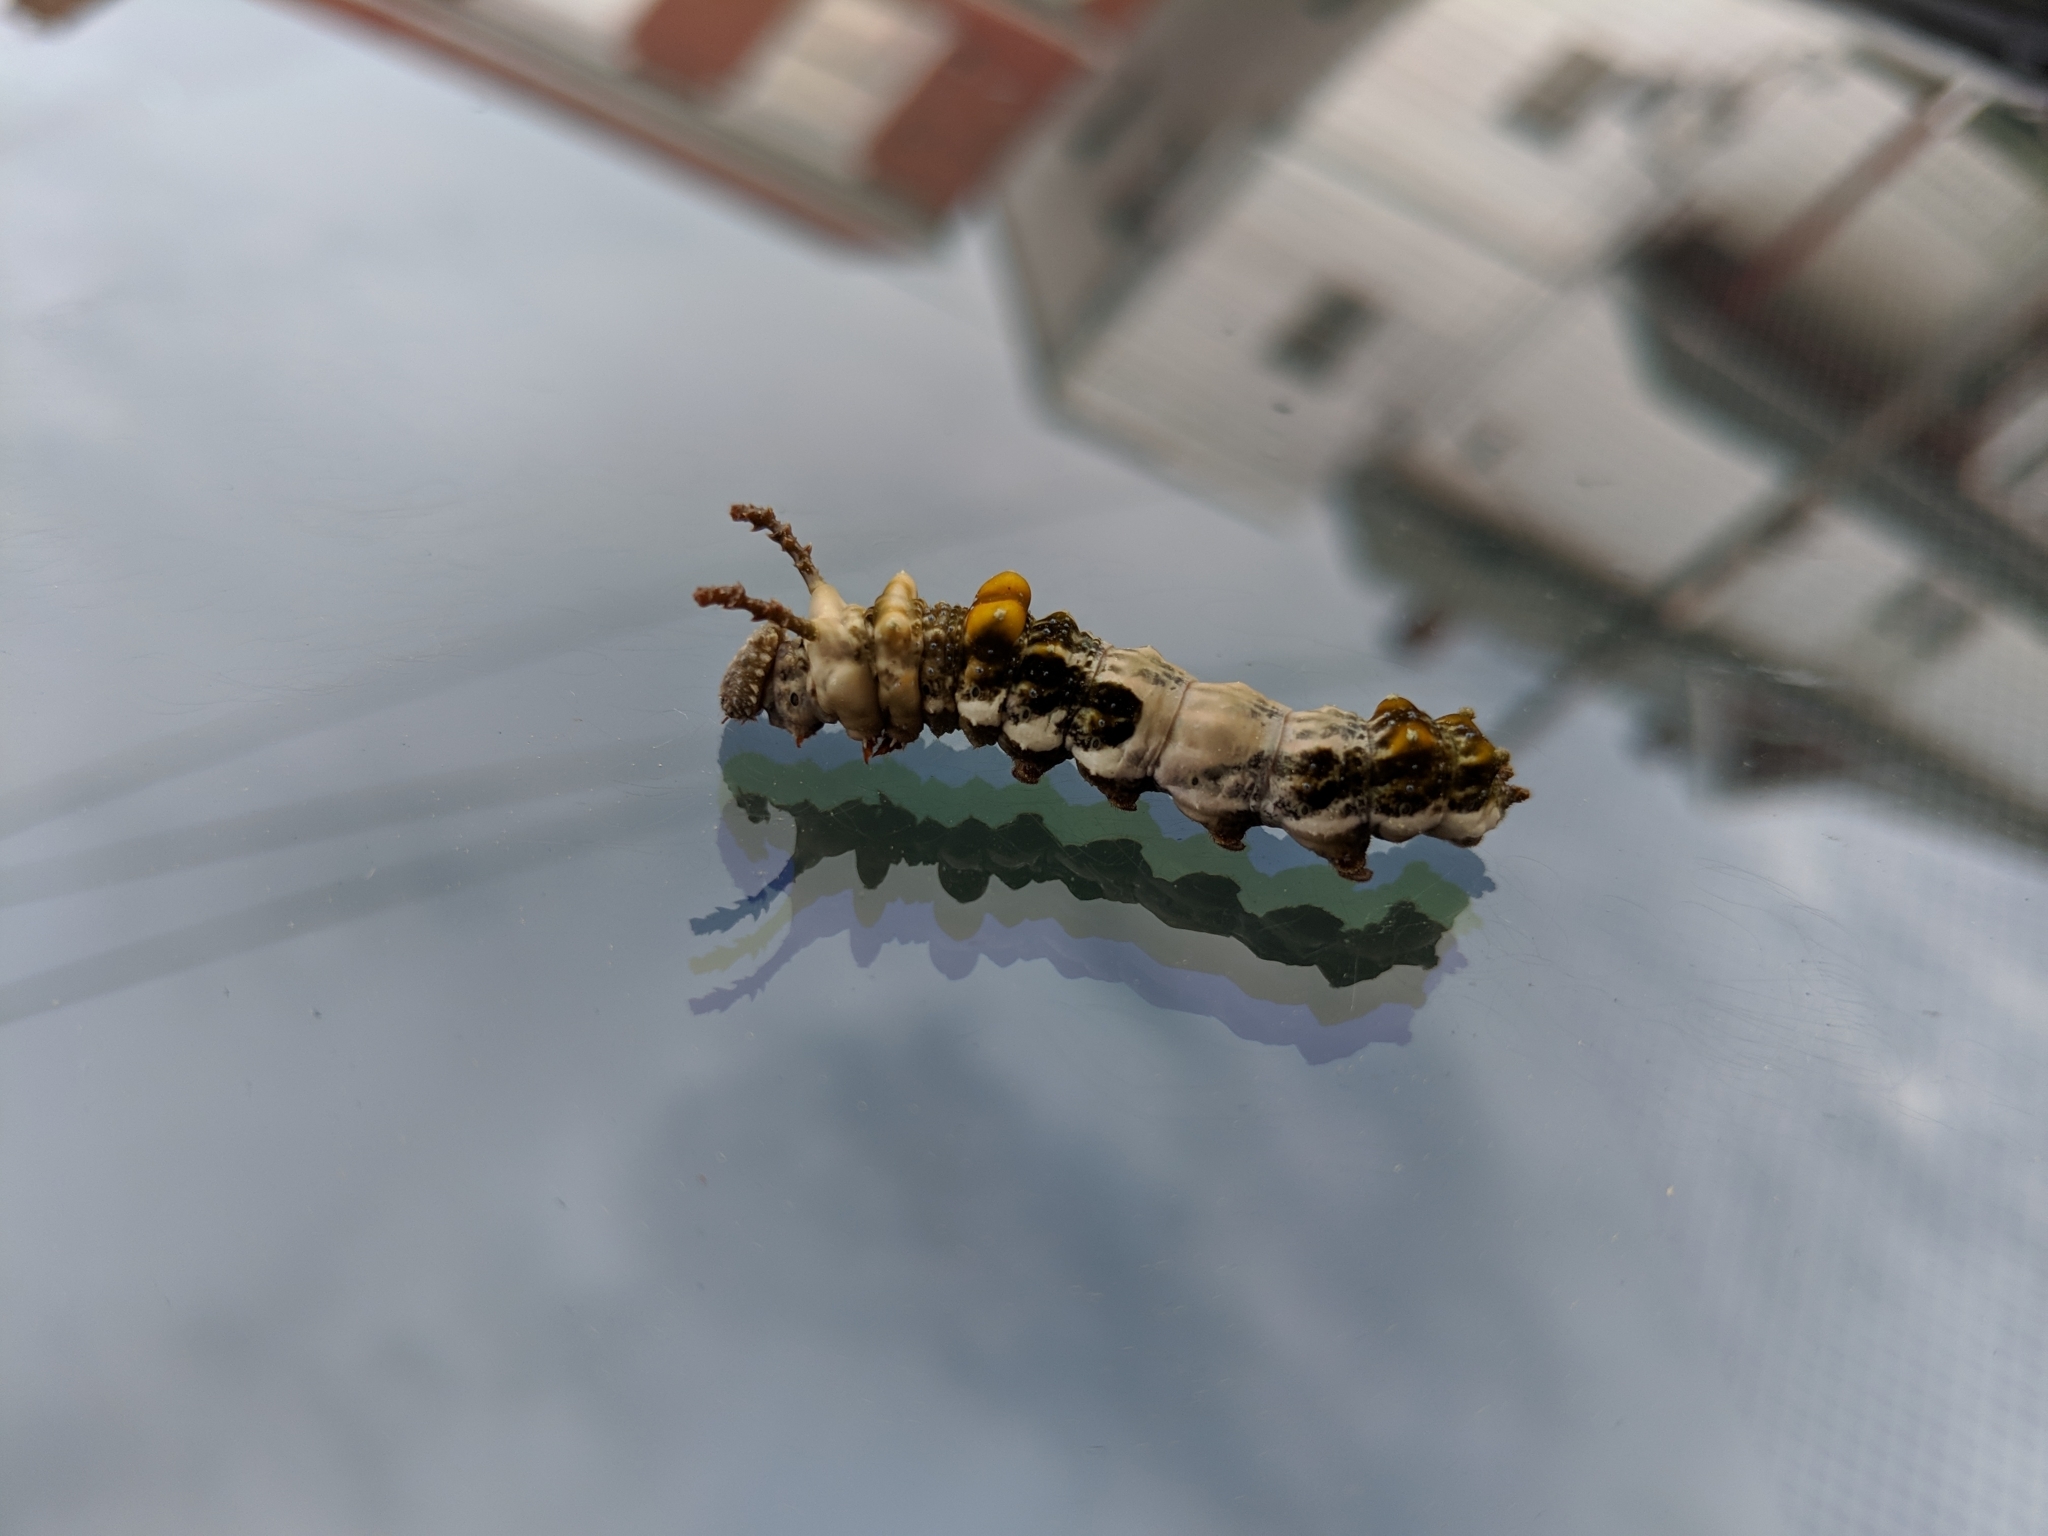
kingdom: Animalia
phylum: Arthropoda
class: Insecta
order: Lepidoptera
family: Nymphalidae
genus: Limenitis
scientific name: Limenitis arthemis
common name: Red-spotted admiral
